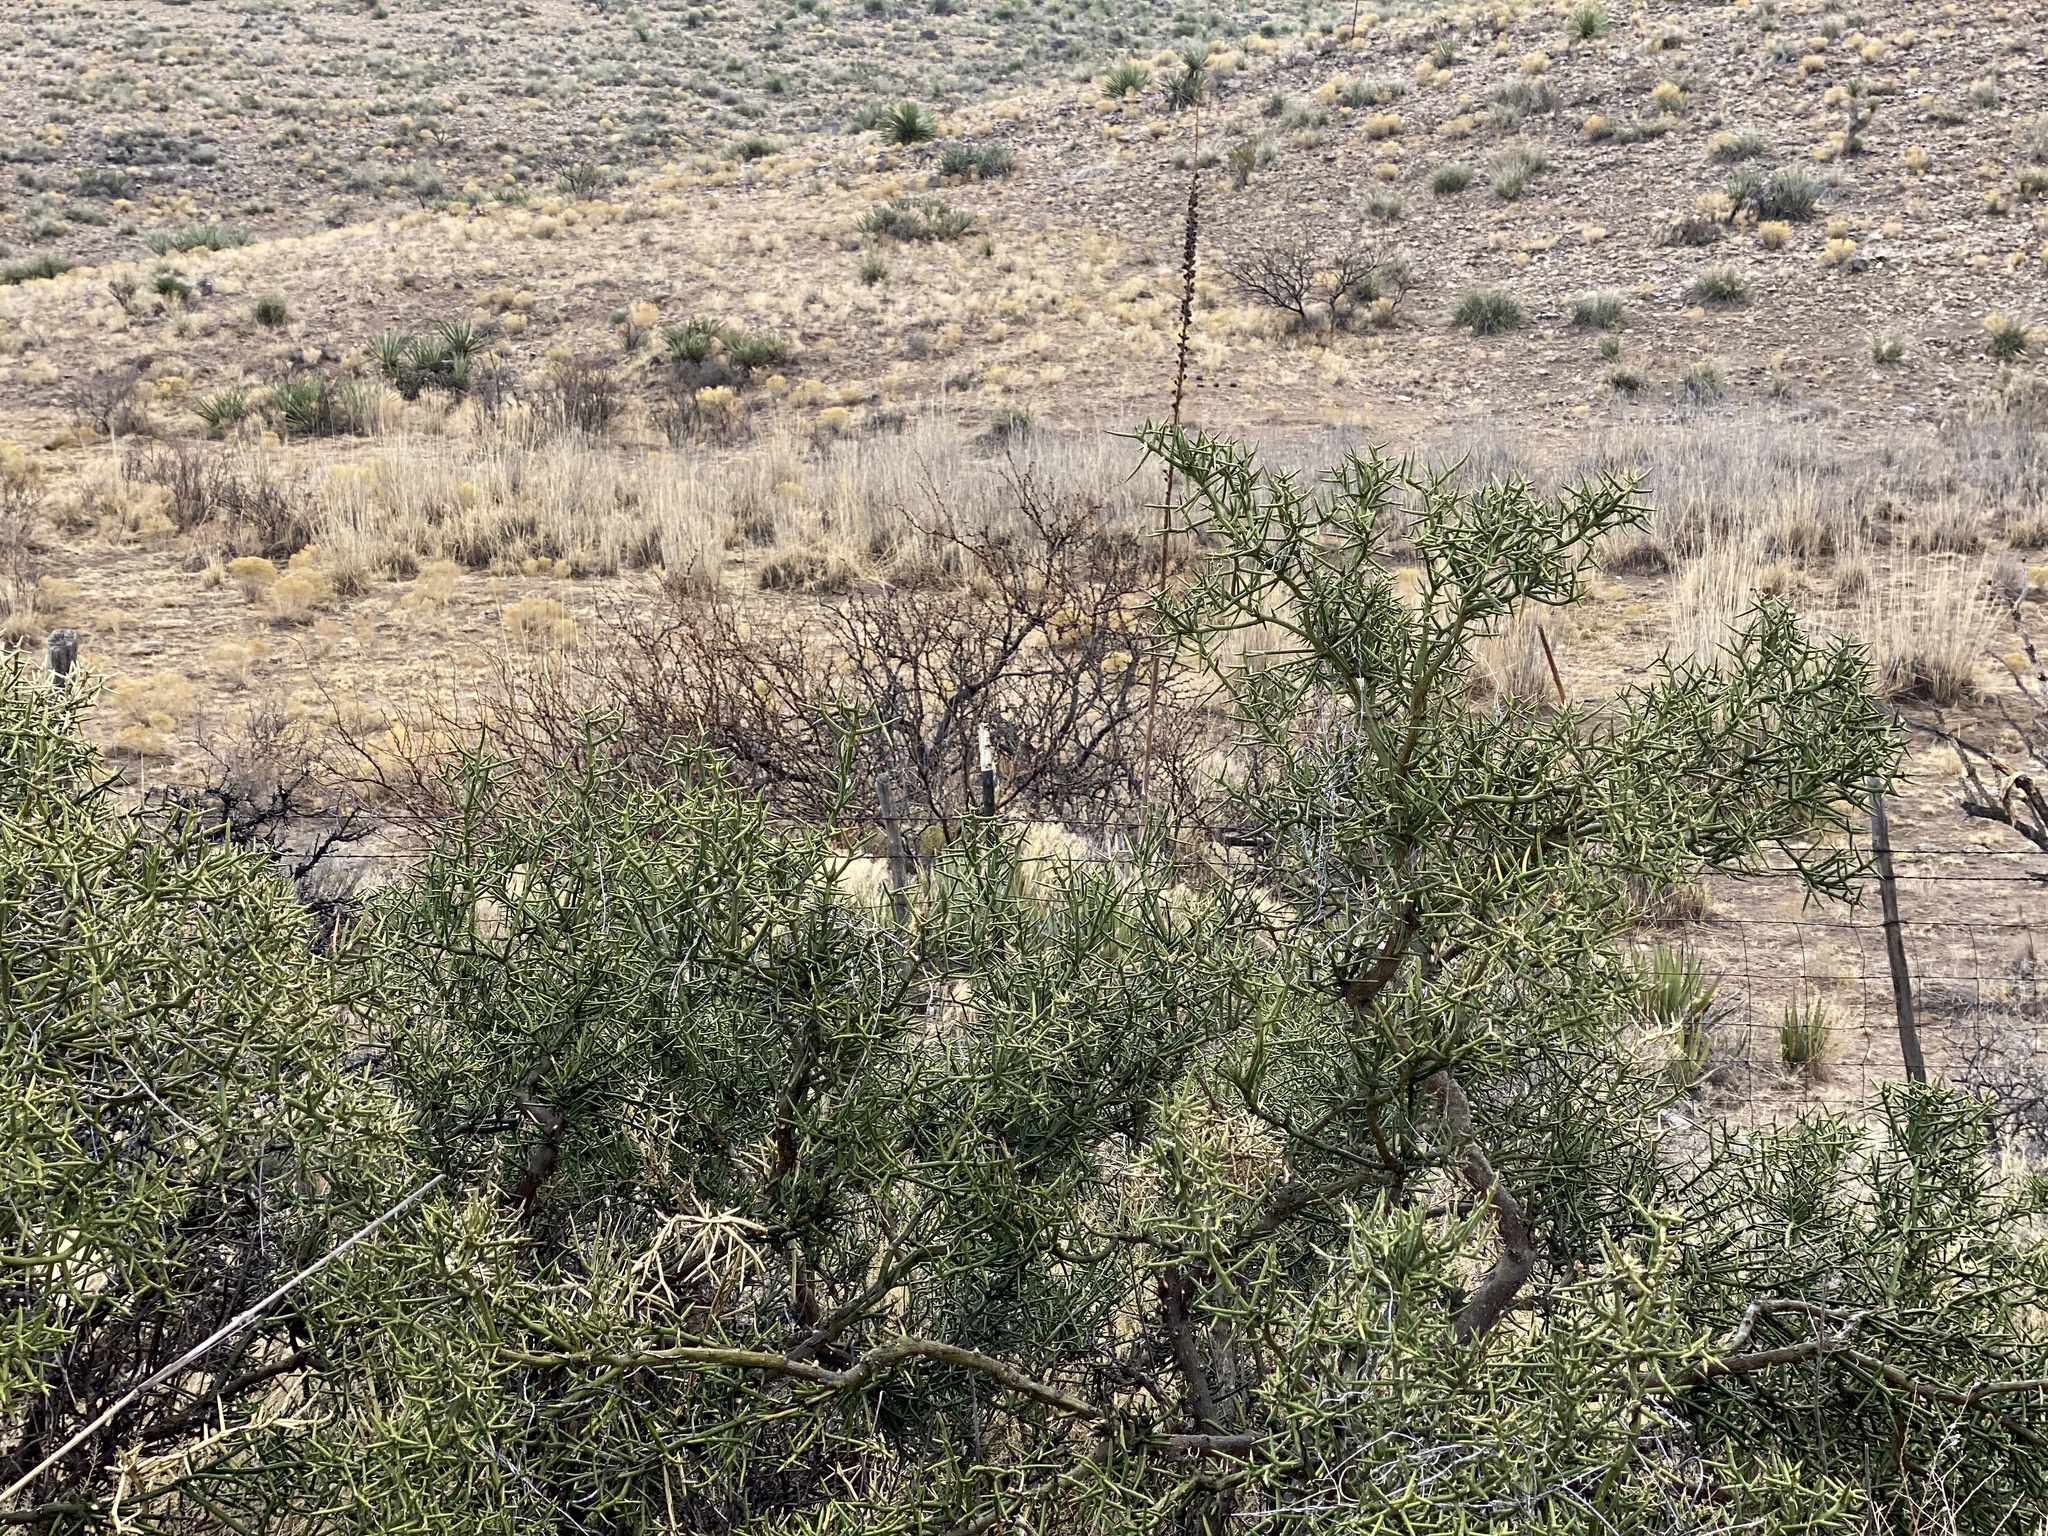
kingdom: Plantae
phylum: Tracheophyta
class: Magnoliopsida
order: Brassicales
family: Koeberliniaceae
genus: Koeberlinia
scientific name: Koeberlinia spinosa
